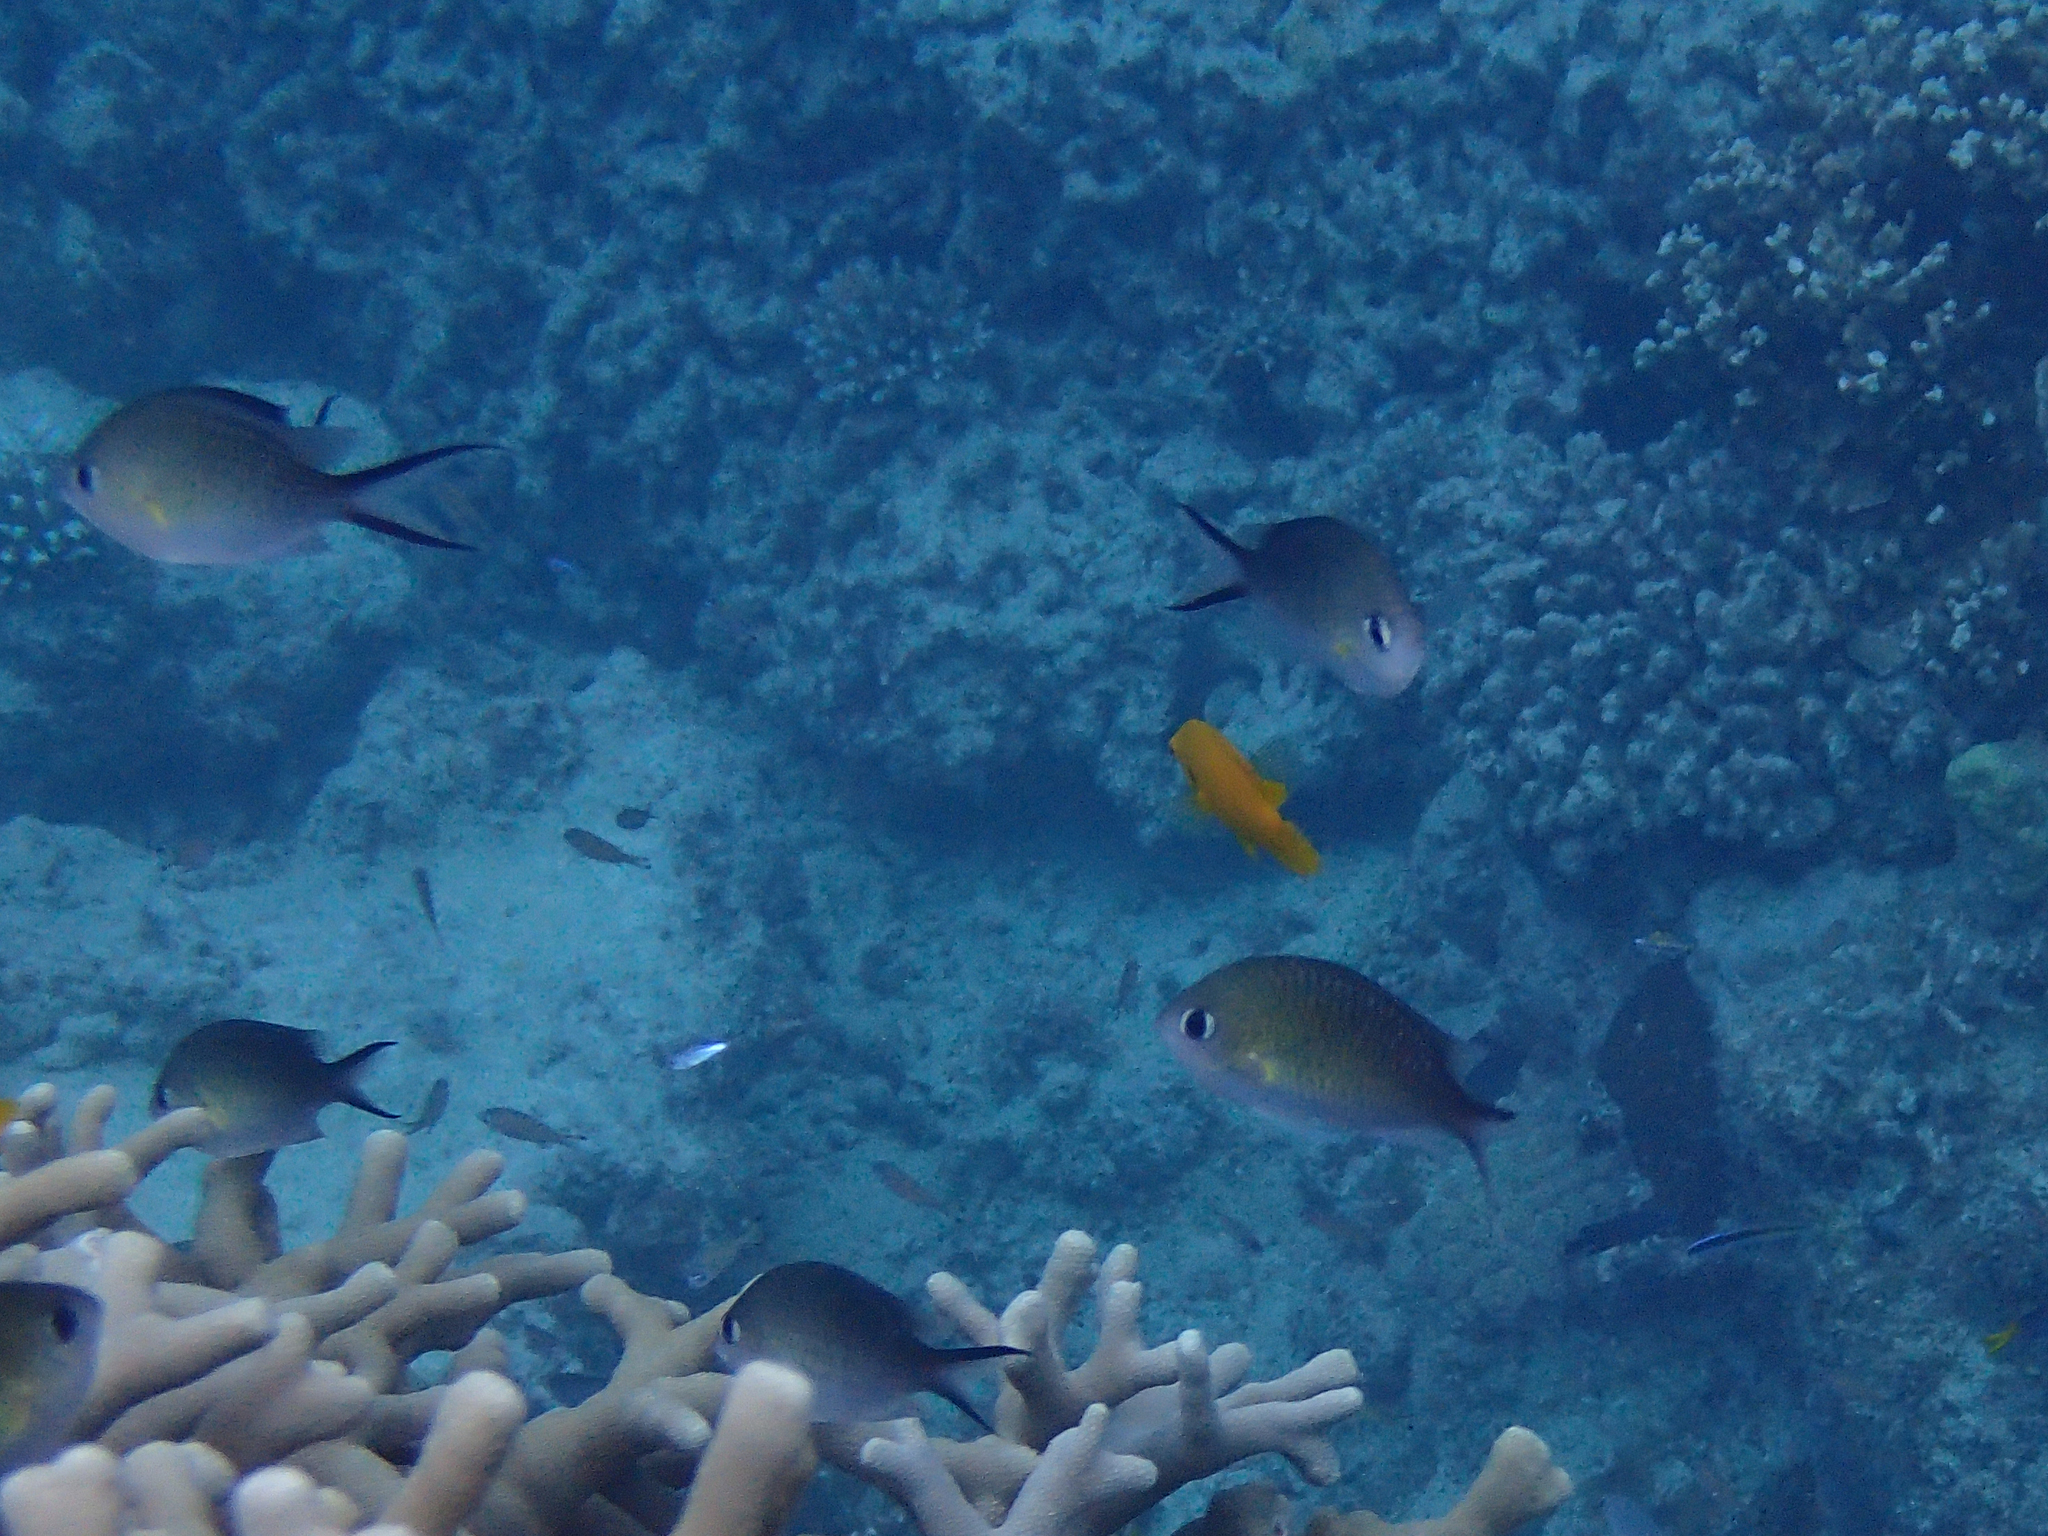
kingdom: Animalia
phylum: Chordata
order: Perciformes
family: Pomacentridae
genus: Chromis
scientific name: Chromis ternatensis
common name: Ternate chromis
